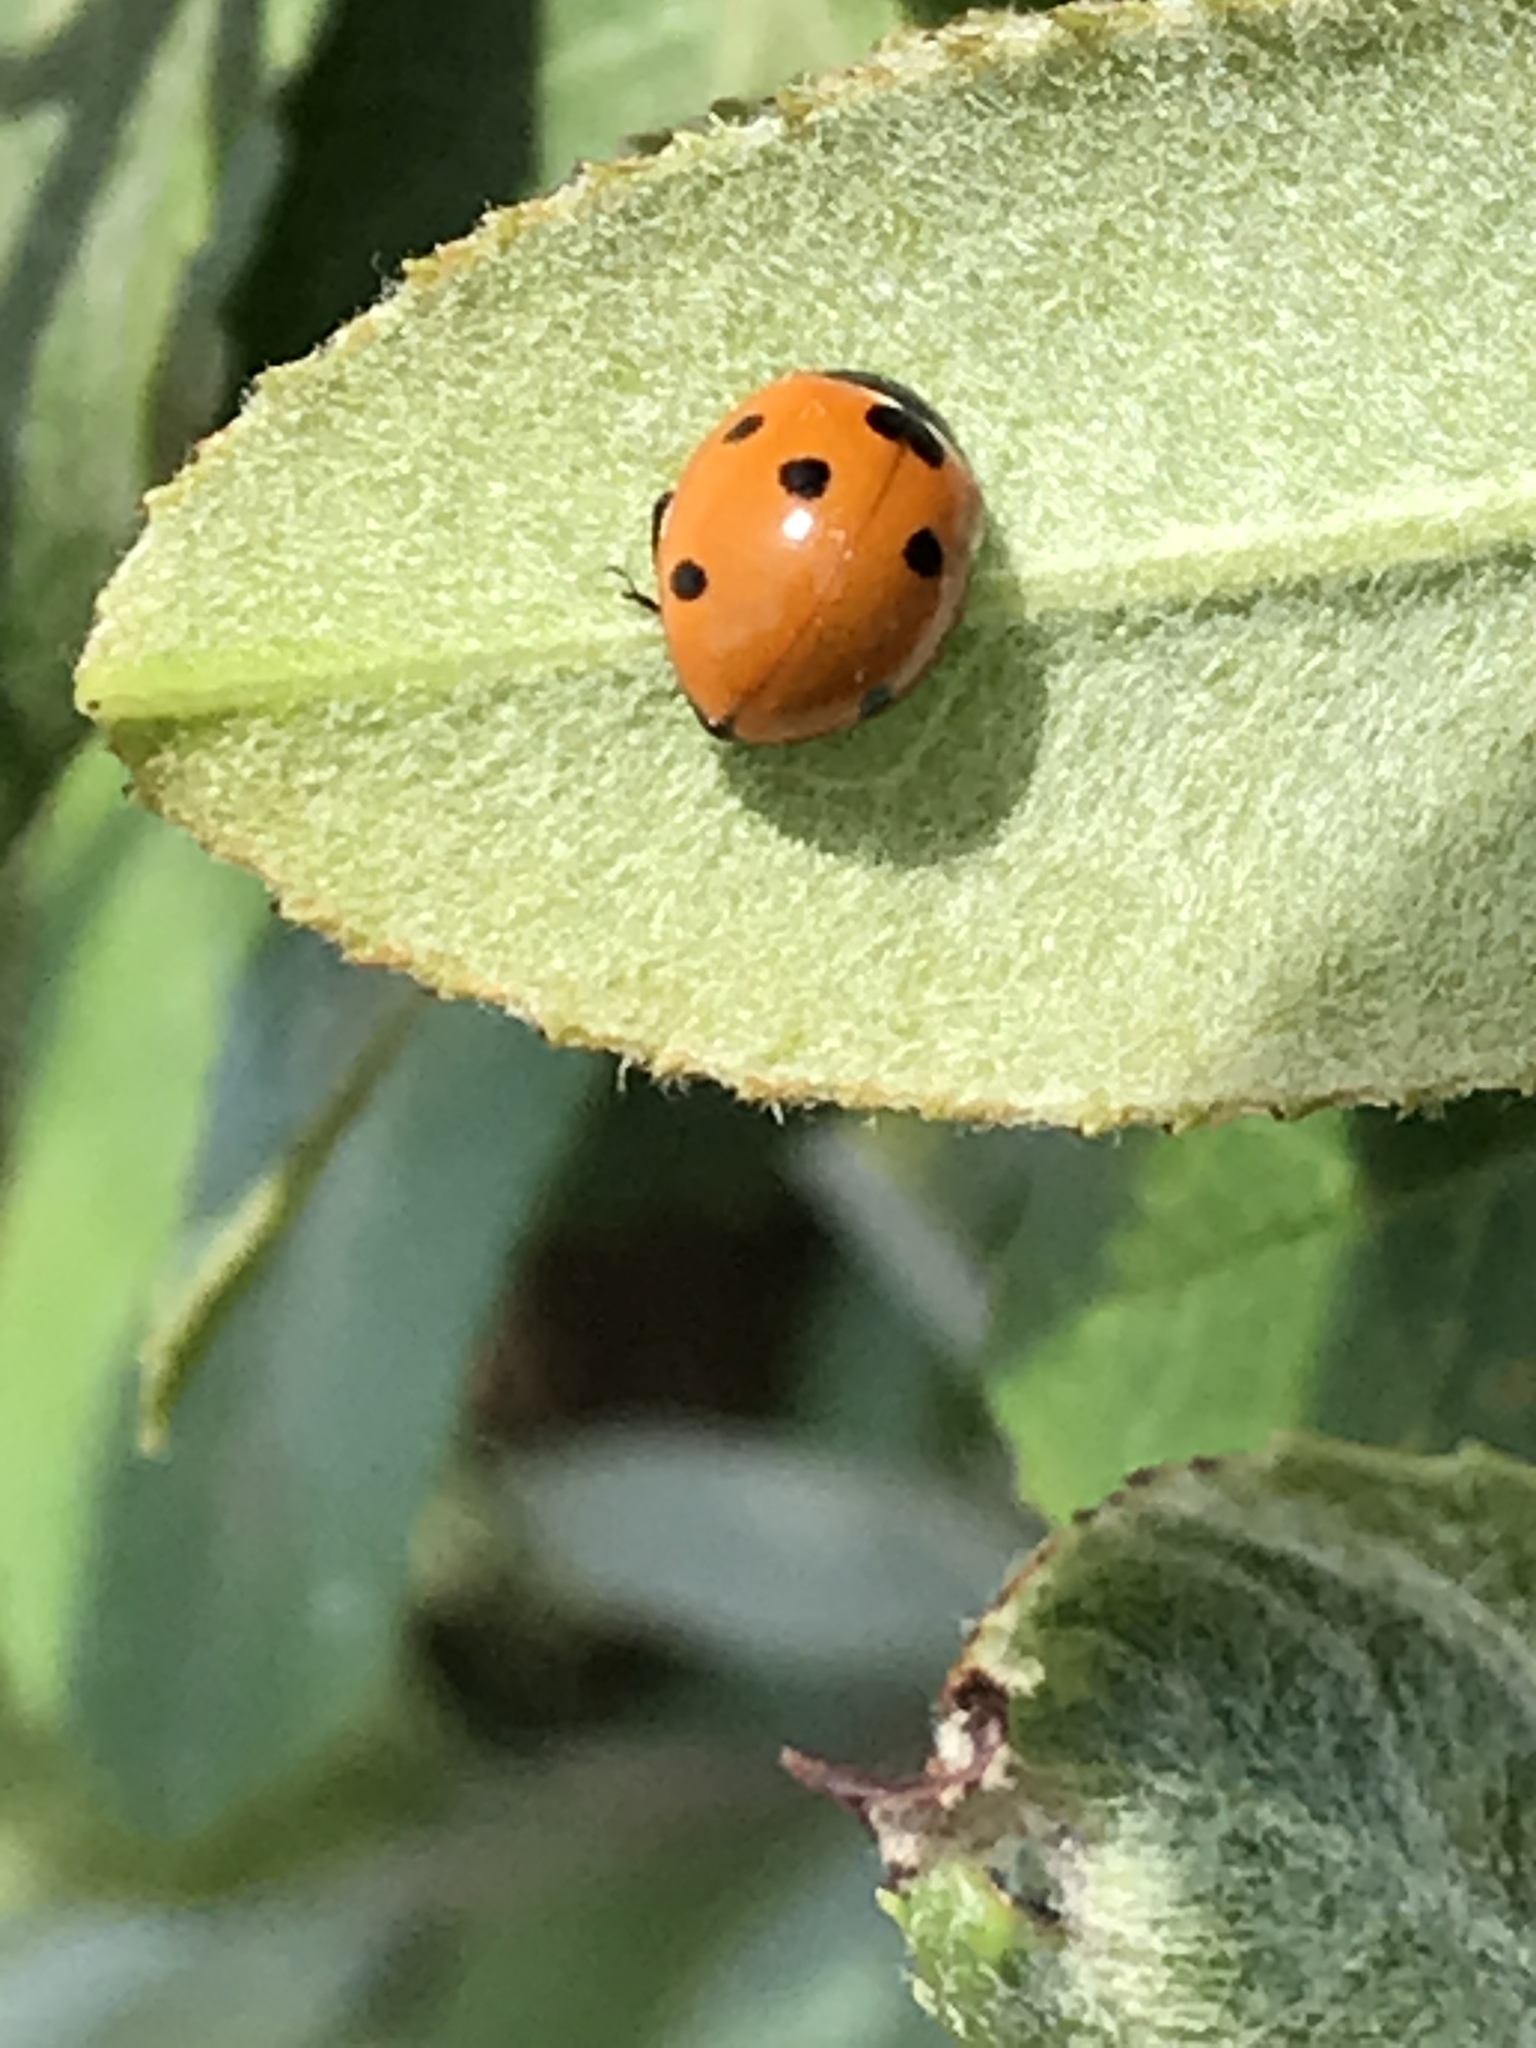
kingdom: Animalia
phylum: Arthropoda
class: Insecta
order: Coleoptera
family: Coccinellidae
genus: Coccinella
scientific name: Coccinella septempunctata
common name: Sevenspotted lady beetle
